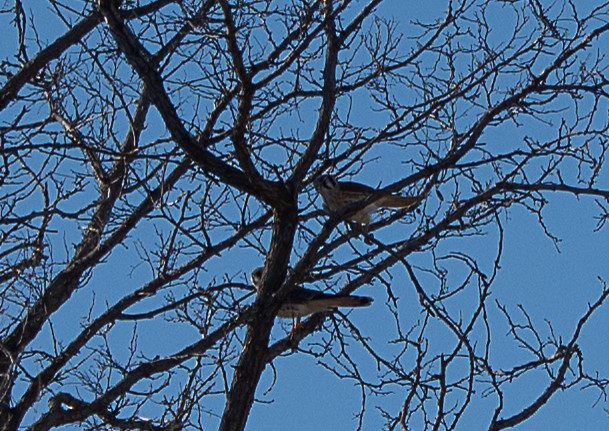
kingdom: Animalia
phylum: Chordata
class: Aves
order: Falconiformes
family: Falconidae
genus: Falco
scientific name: Falco sparverius
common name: American kestrel
